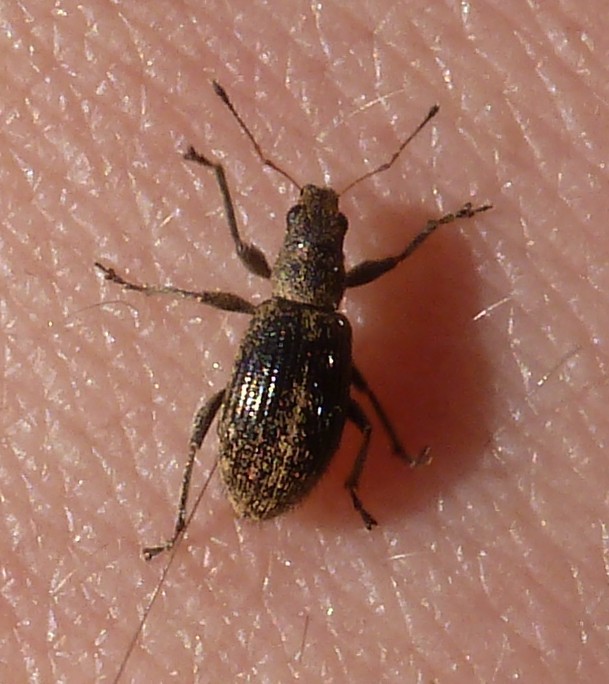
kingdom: Animalia
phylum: Arthropoda
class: Insecta
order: Coleoptera
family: Curculionidae
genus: Polydrusus
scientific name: Polydrusus inustus
